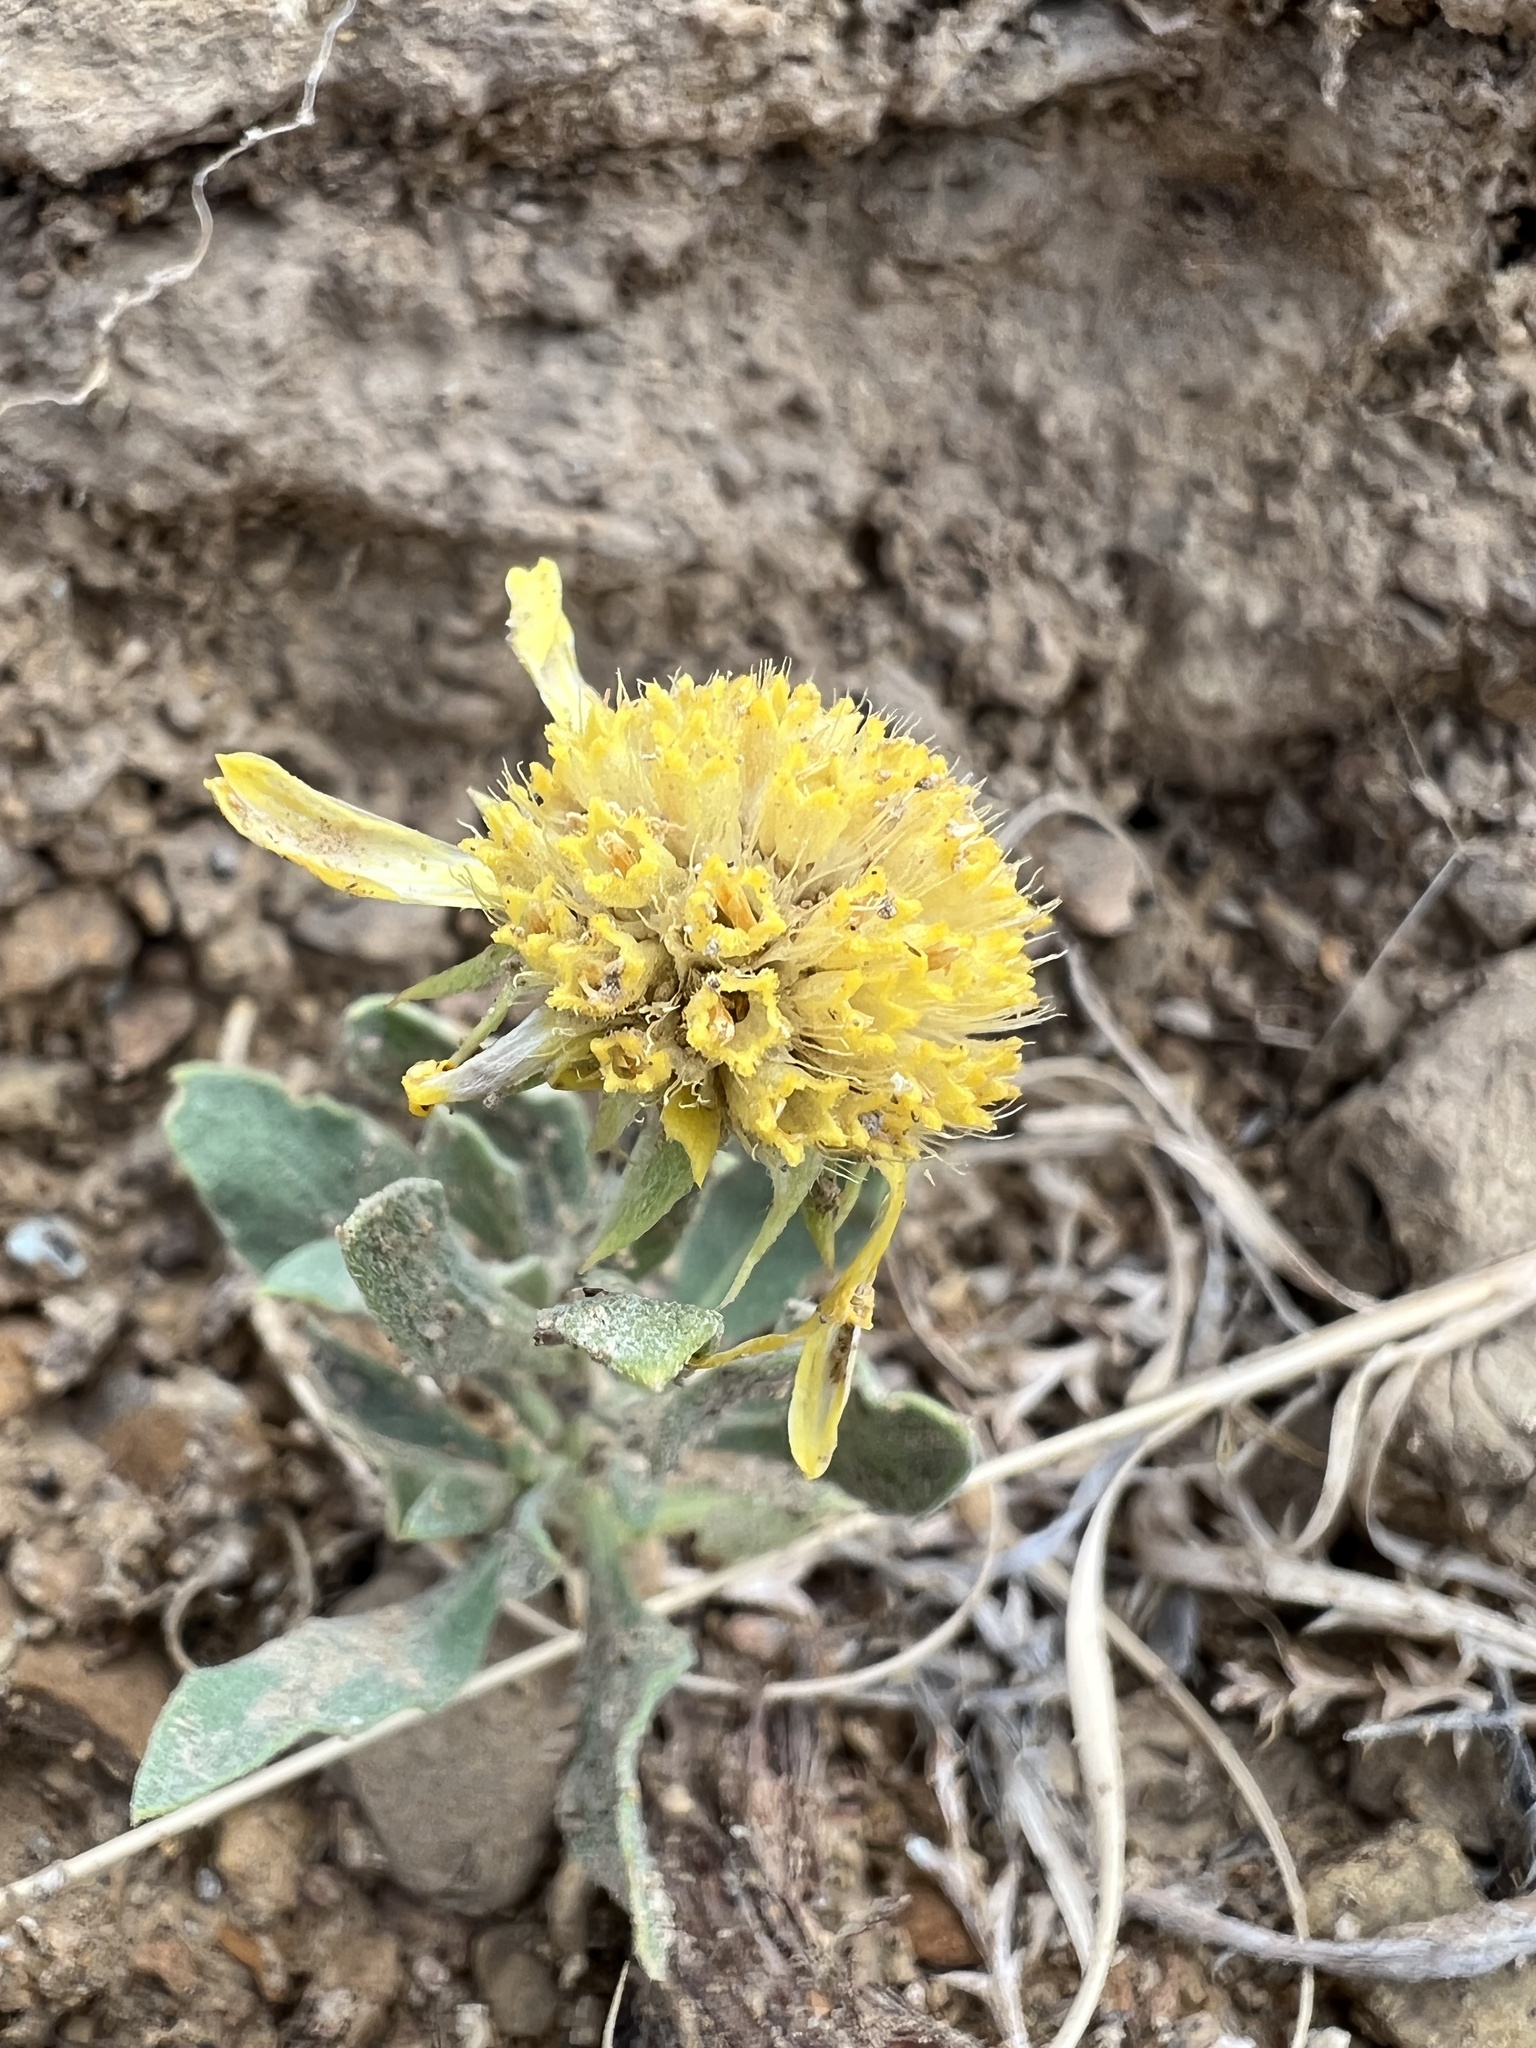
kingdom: Plantae
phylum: Tracheophyta
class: Magnoliopsida
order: Asterales
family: Asteraceae
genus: Gaillardia
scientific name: Gaillardia spathulata
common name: Basin blanket-flower
